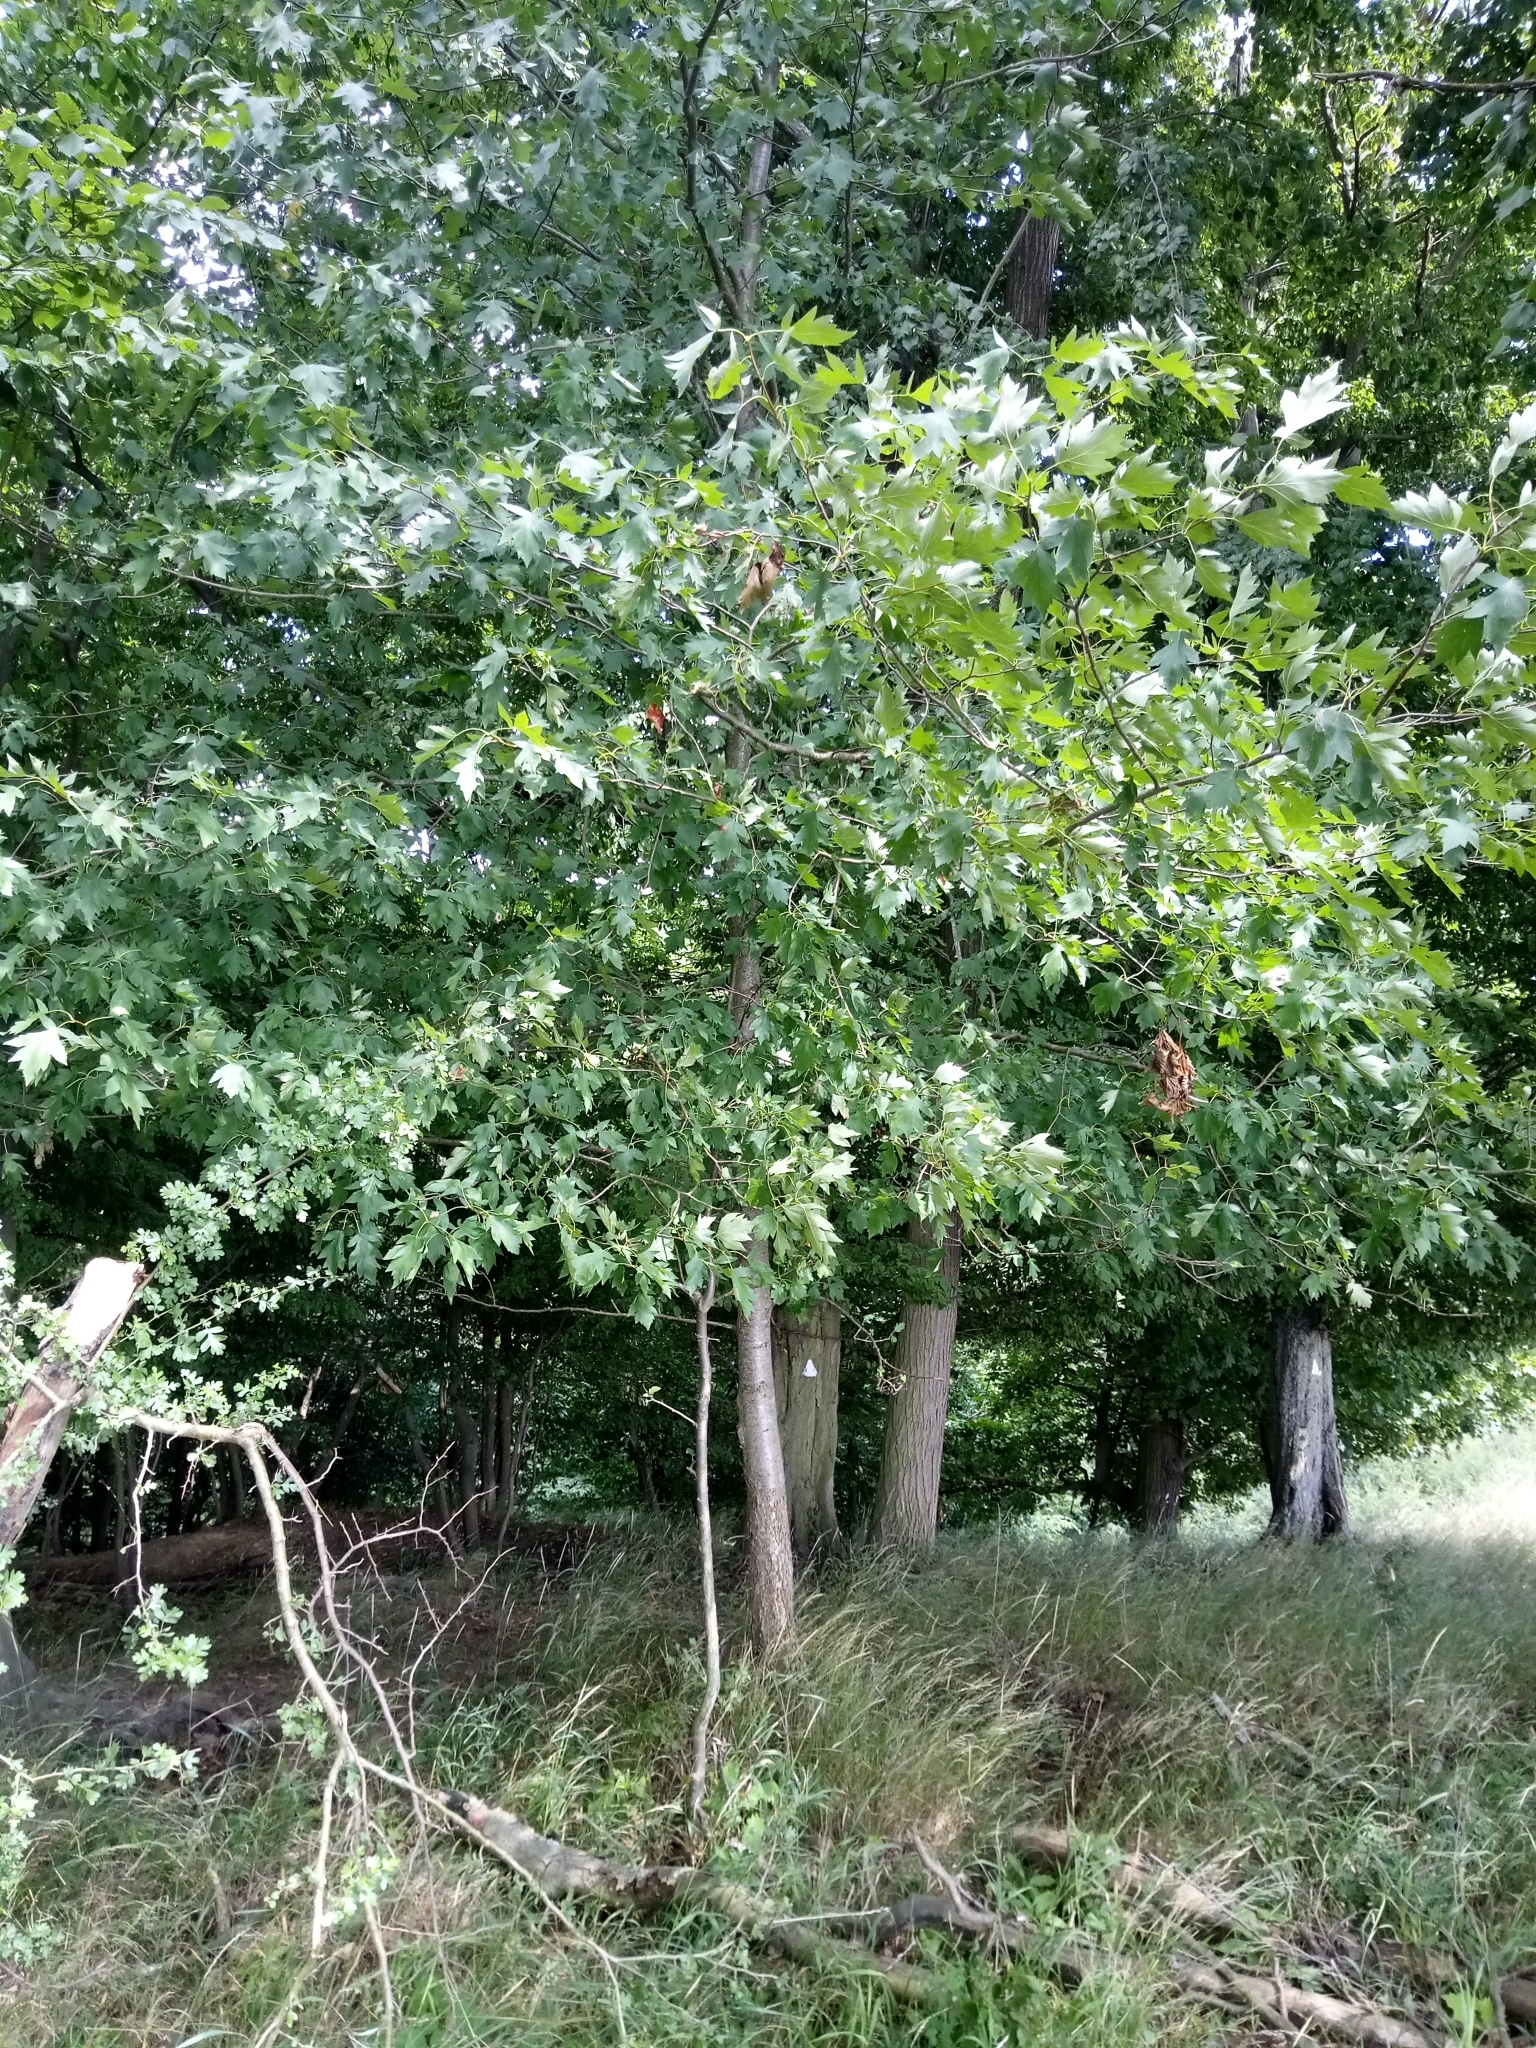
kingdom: Plantae
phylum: Tracheophyta
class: Magnoliopsida
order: Rosales
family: Rosaceae
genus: Torminalis
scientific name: Torminalis glaberrima
